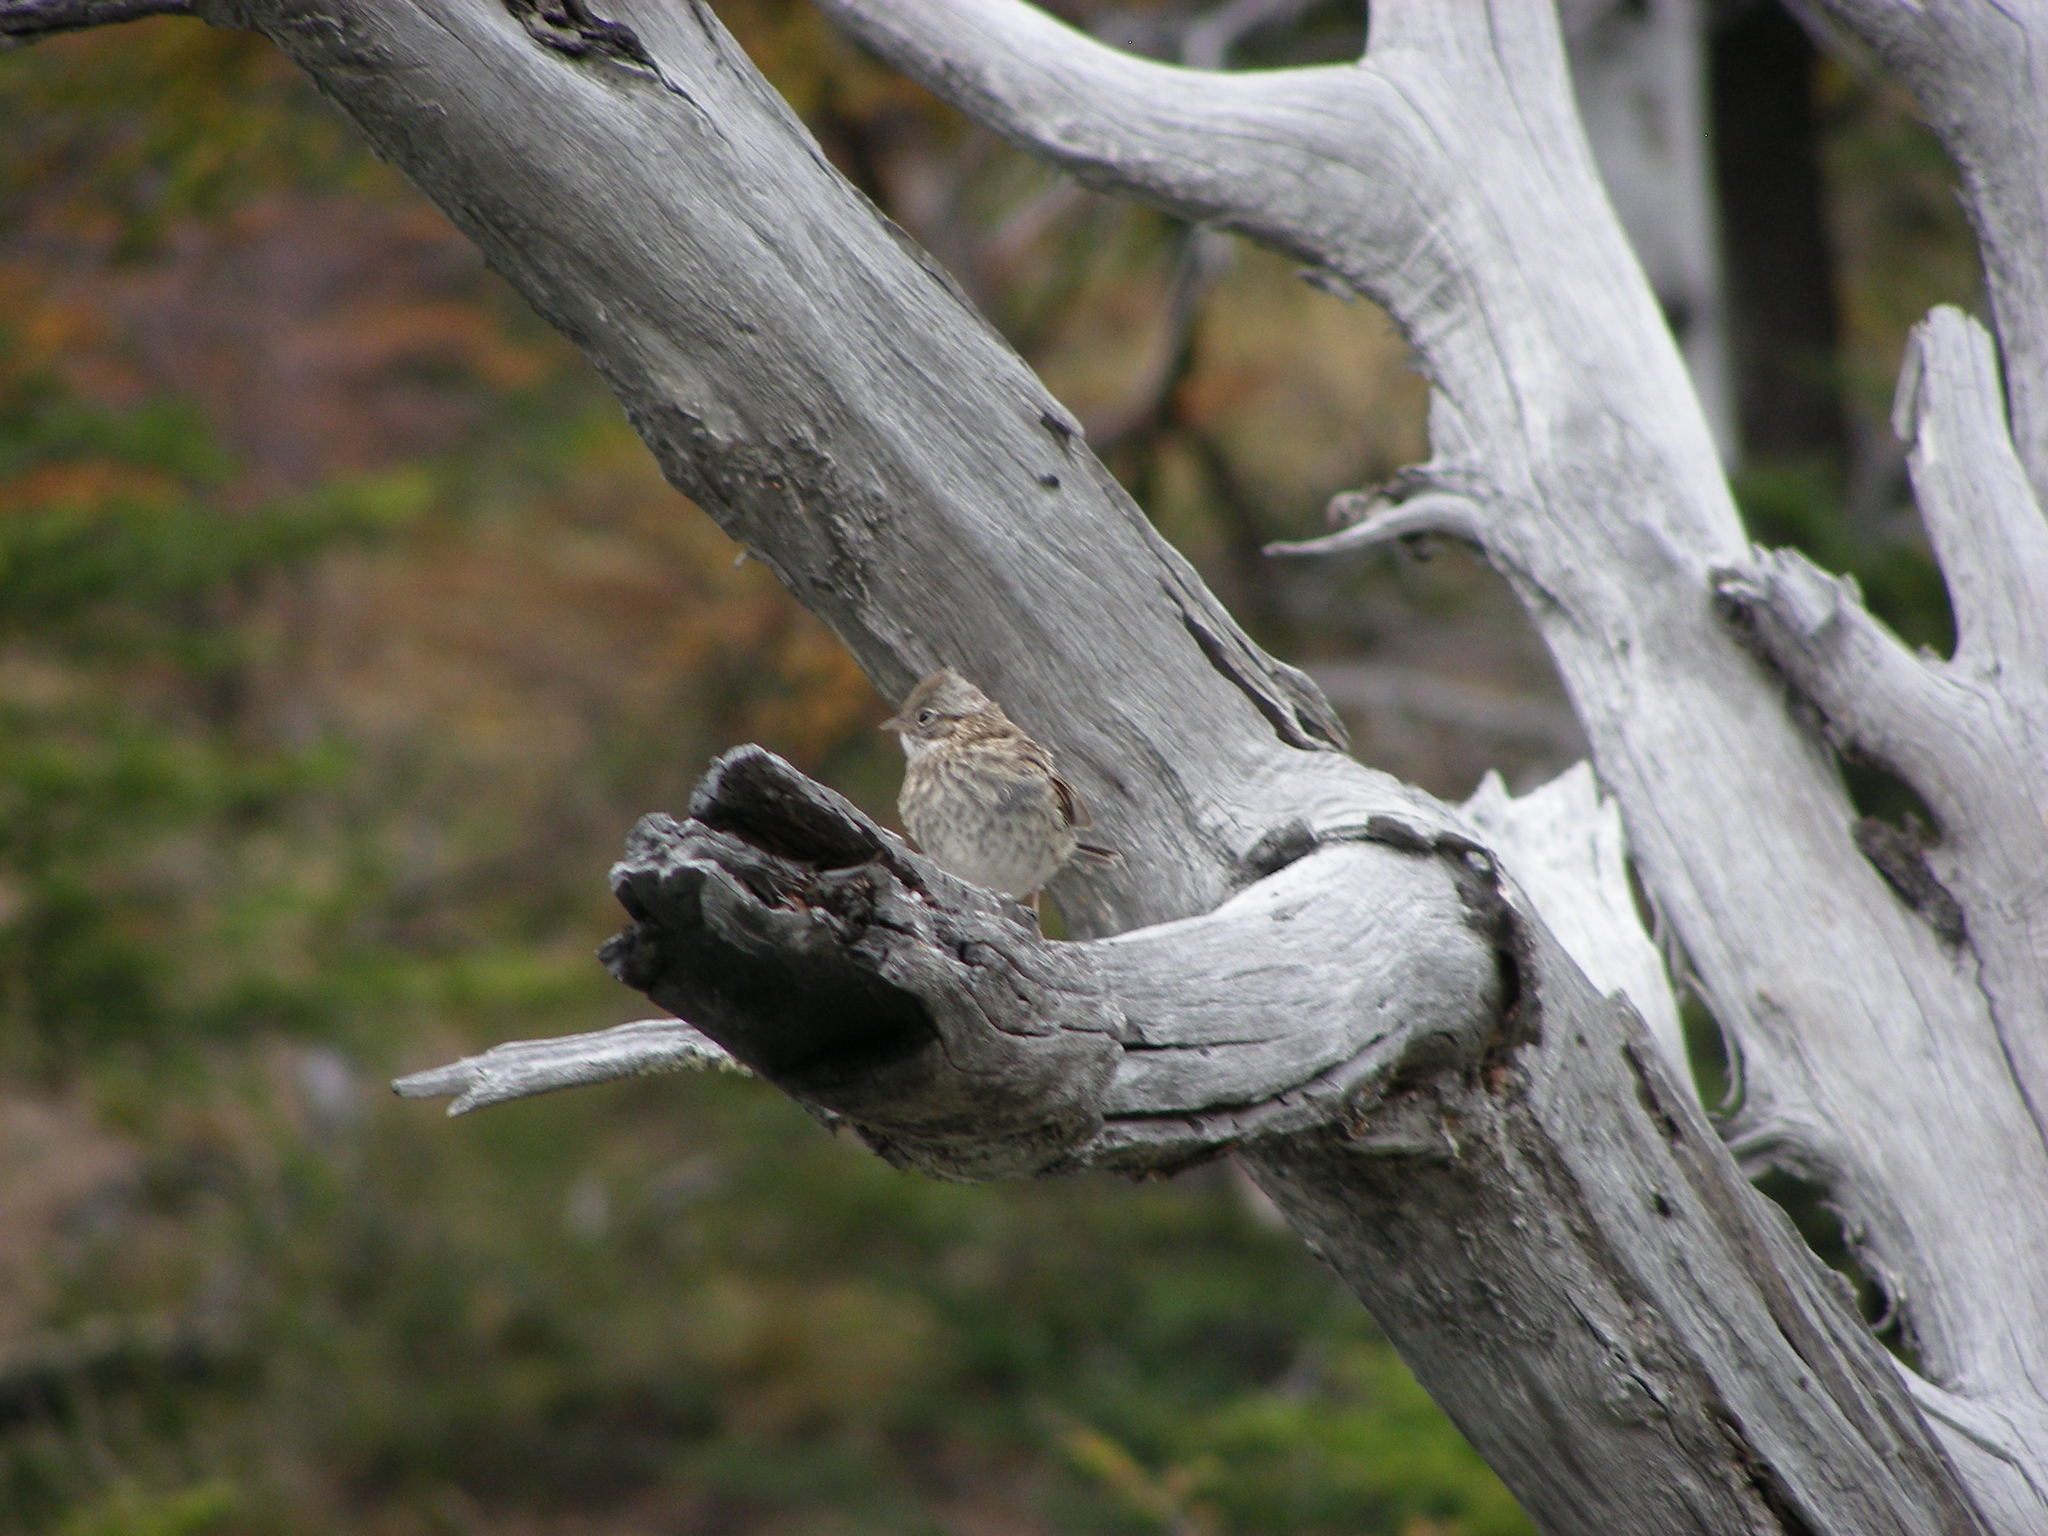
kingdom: Animalia
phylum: Chordata
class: Aves
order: Passeriformes
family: Passerellidae
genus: Zonotrichia
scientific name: Zonotrichia capensis
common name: Rufous-collared sparrow
